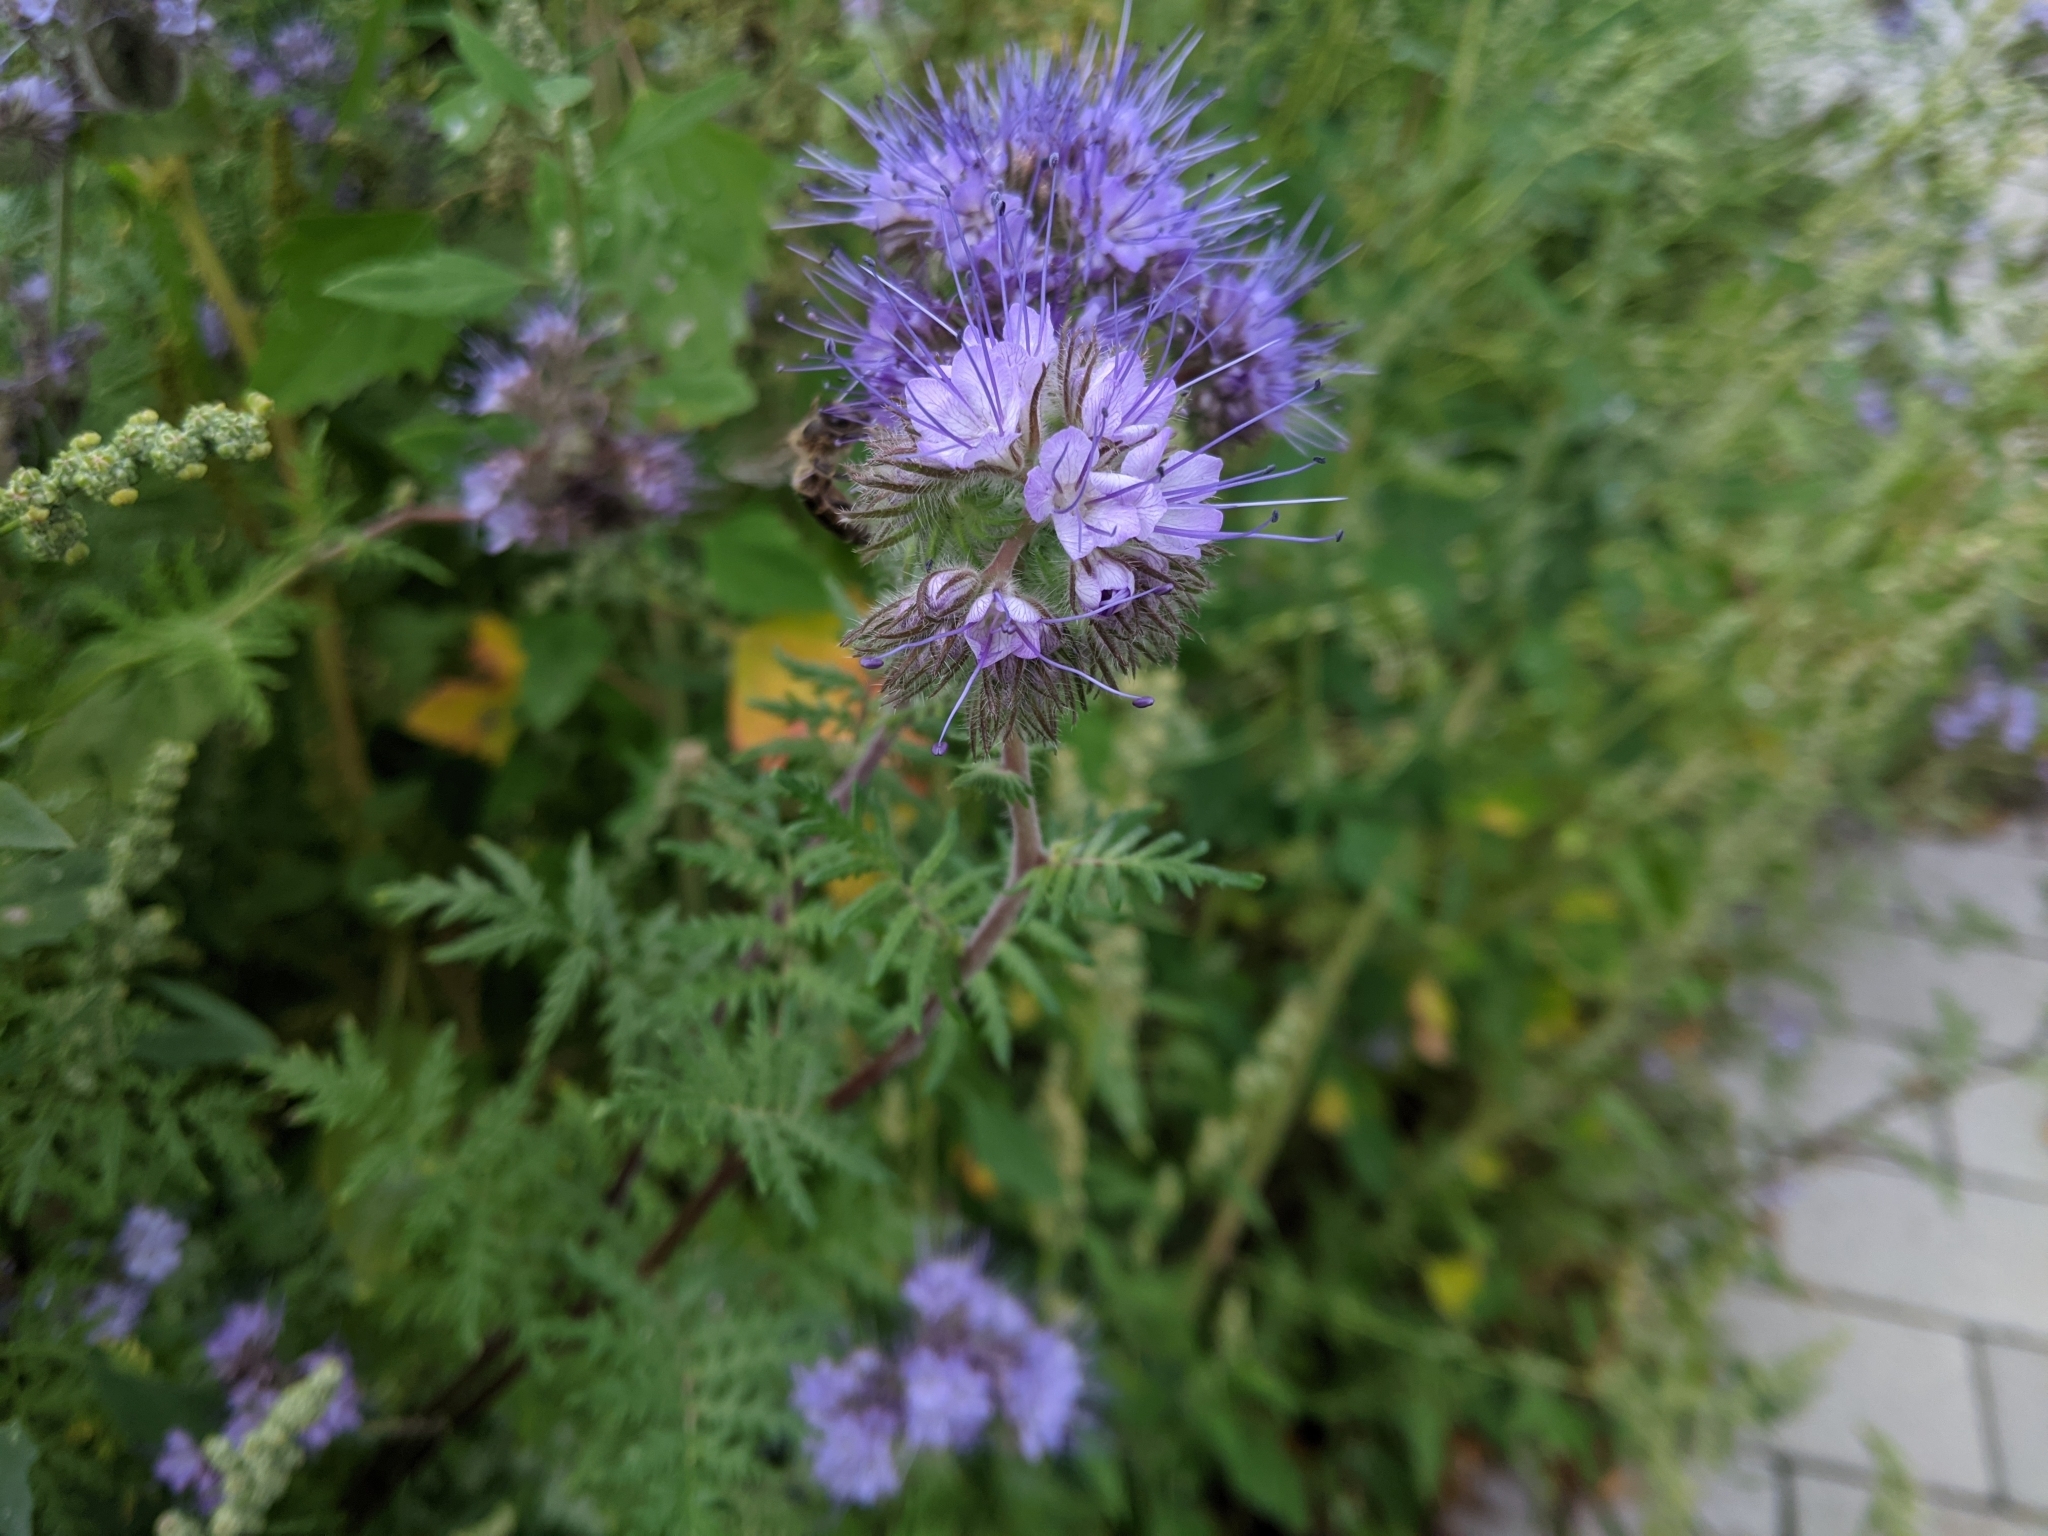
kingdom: Plantae
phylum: Tracheophyta
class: Magnoliopsida
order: Boraginales
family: Hydrophyllaceae
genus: Phacelia
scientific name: Phacelia tanacetifolia
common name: Phacelia
